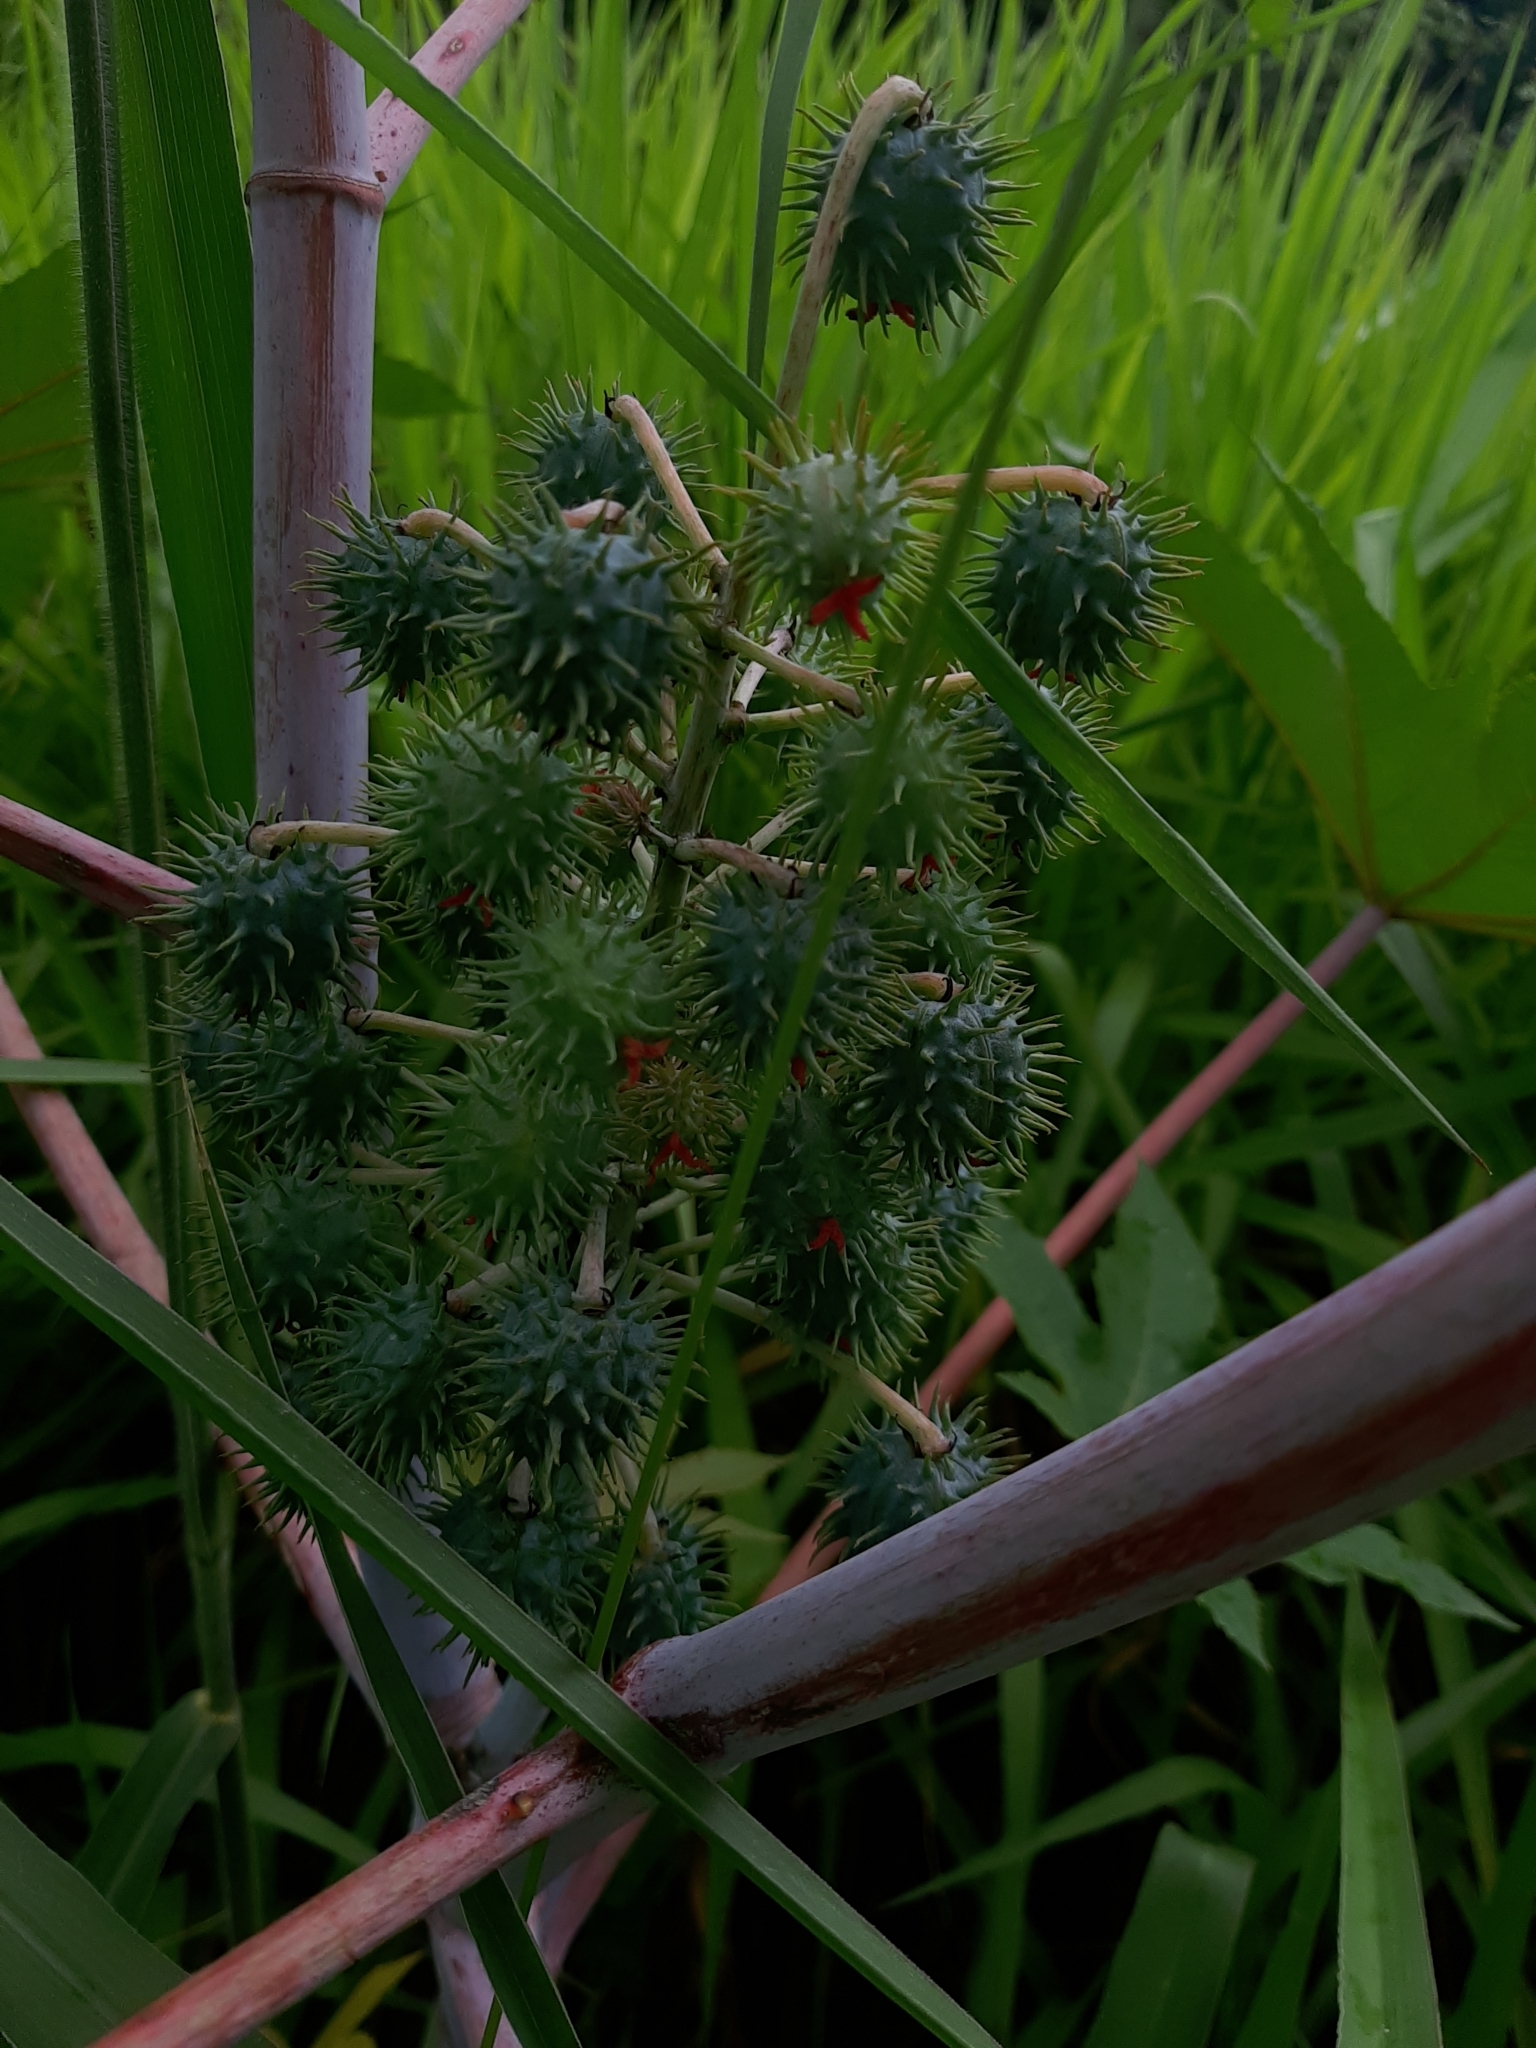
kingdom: Plantae
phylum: Tracheophyta
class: Magnoliopsida
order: Malpighiales
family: Euphorbiaceae
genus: Ricinus
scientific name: Ricinus communis
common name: Castor-oil-plant
